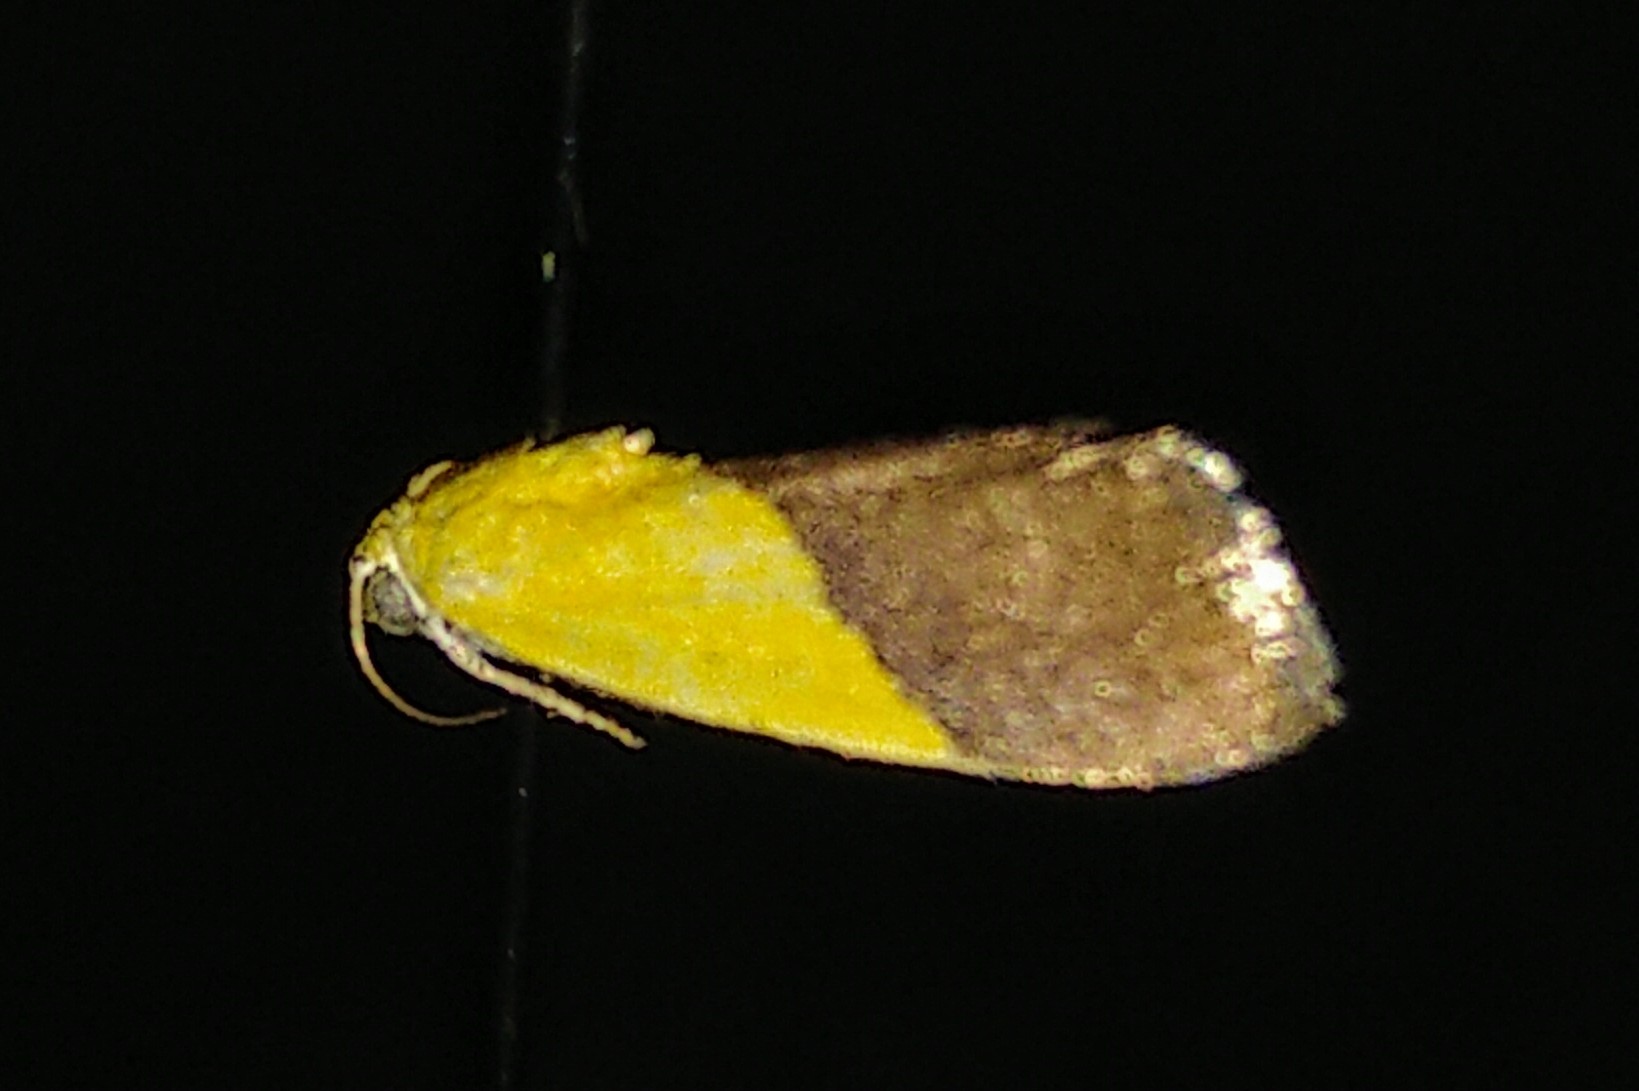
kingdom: Animalia
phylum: Arthropoda
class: Insecta
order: Lepidoptera
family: Noctuidae
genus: Acontia
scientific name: Acontia semiflava
